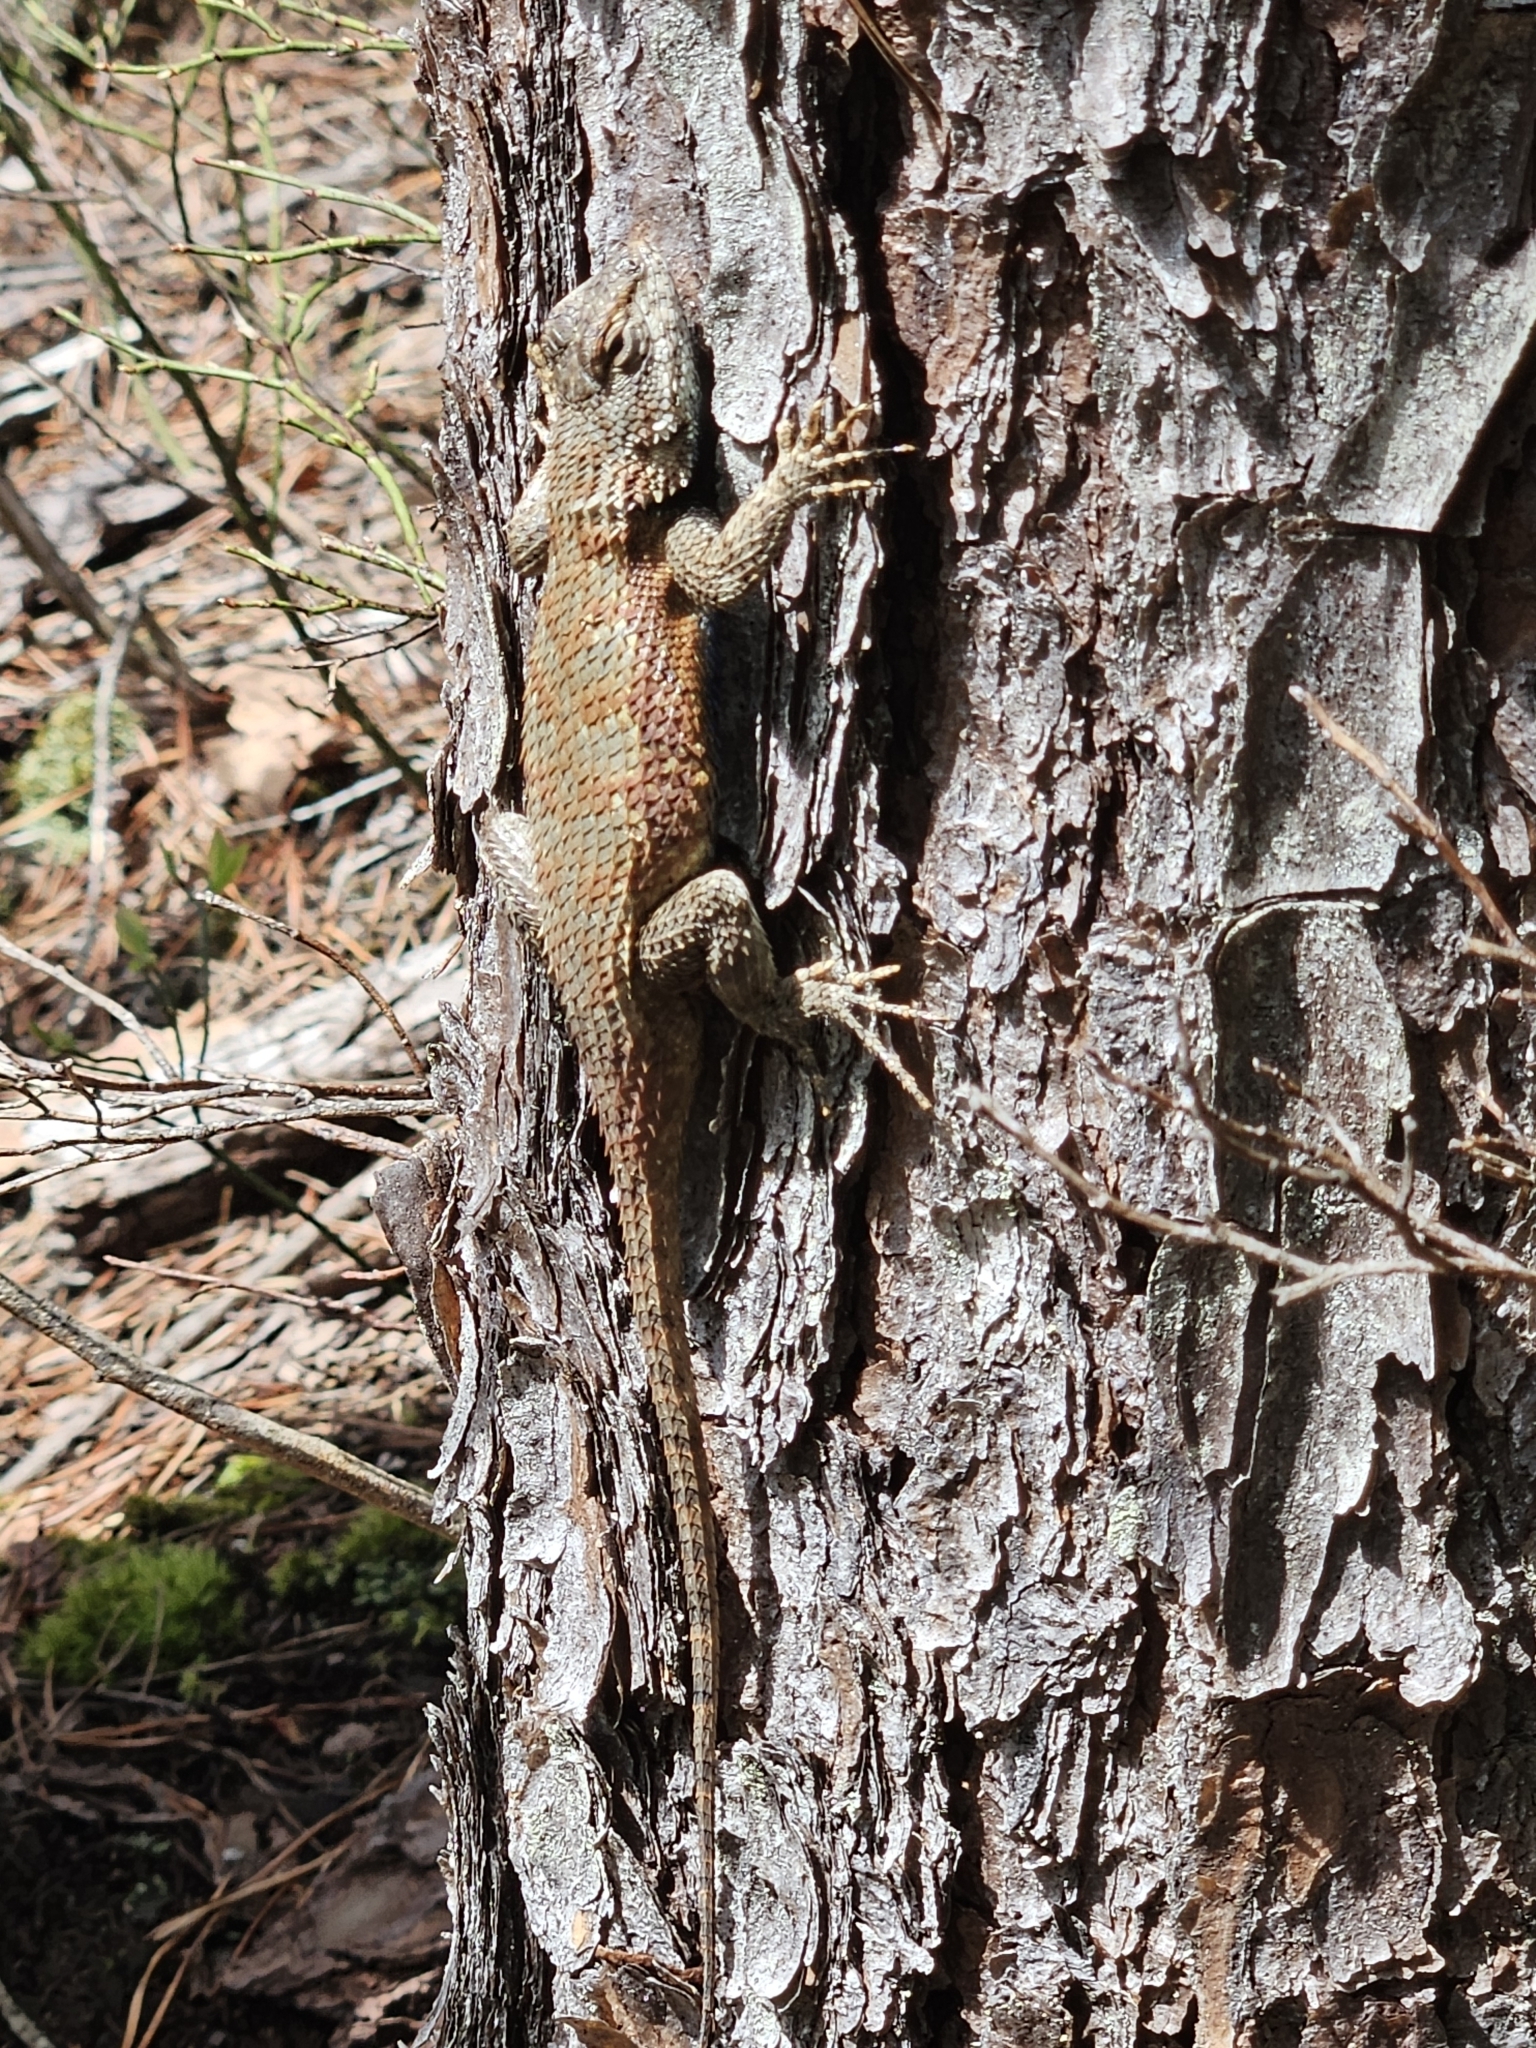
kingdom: Animalia
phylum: Chordata
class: Squamata
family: Phrynosomatidae
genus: Sceloporus
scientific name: Sceloporus undulatus
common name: Eastern fence lizard
